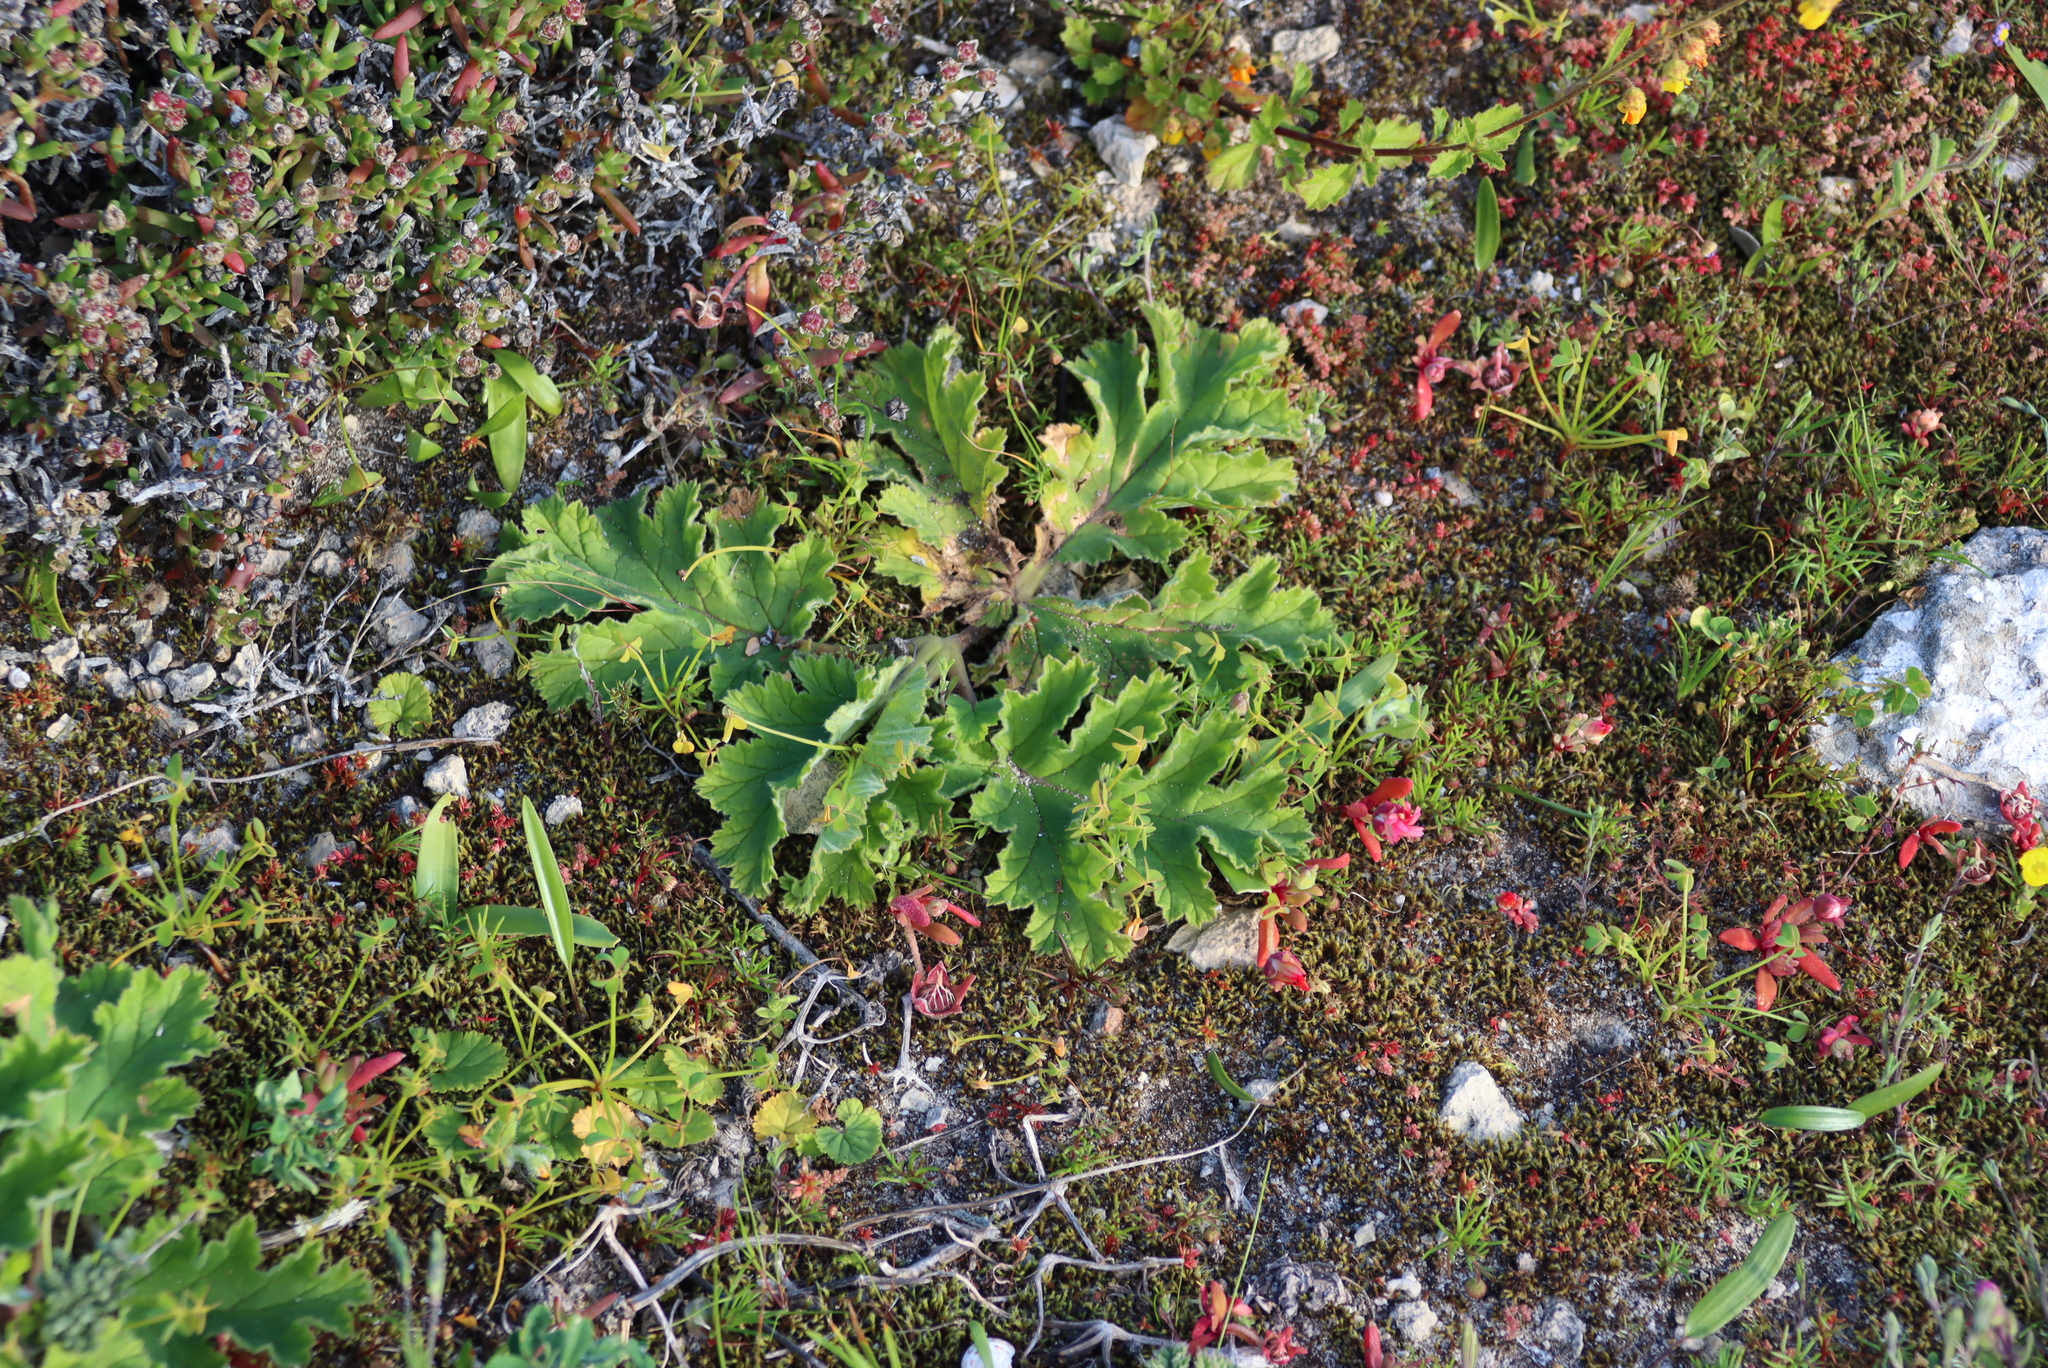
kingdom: Plantae
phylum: Tracheophyta
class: Magnoliopsida
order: Geraniales
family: Geraniaceae
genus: Pelargonium
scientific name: Pelargonium lobatum
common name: Vine-leaf pelargonium
